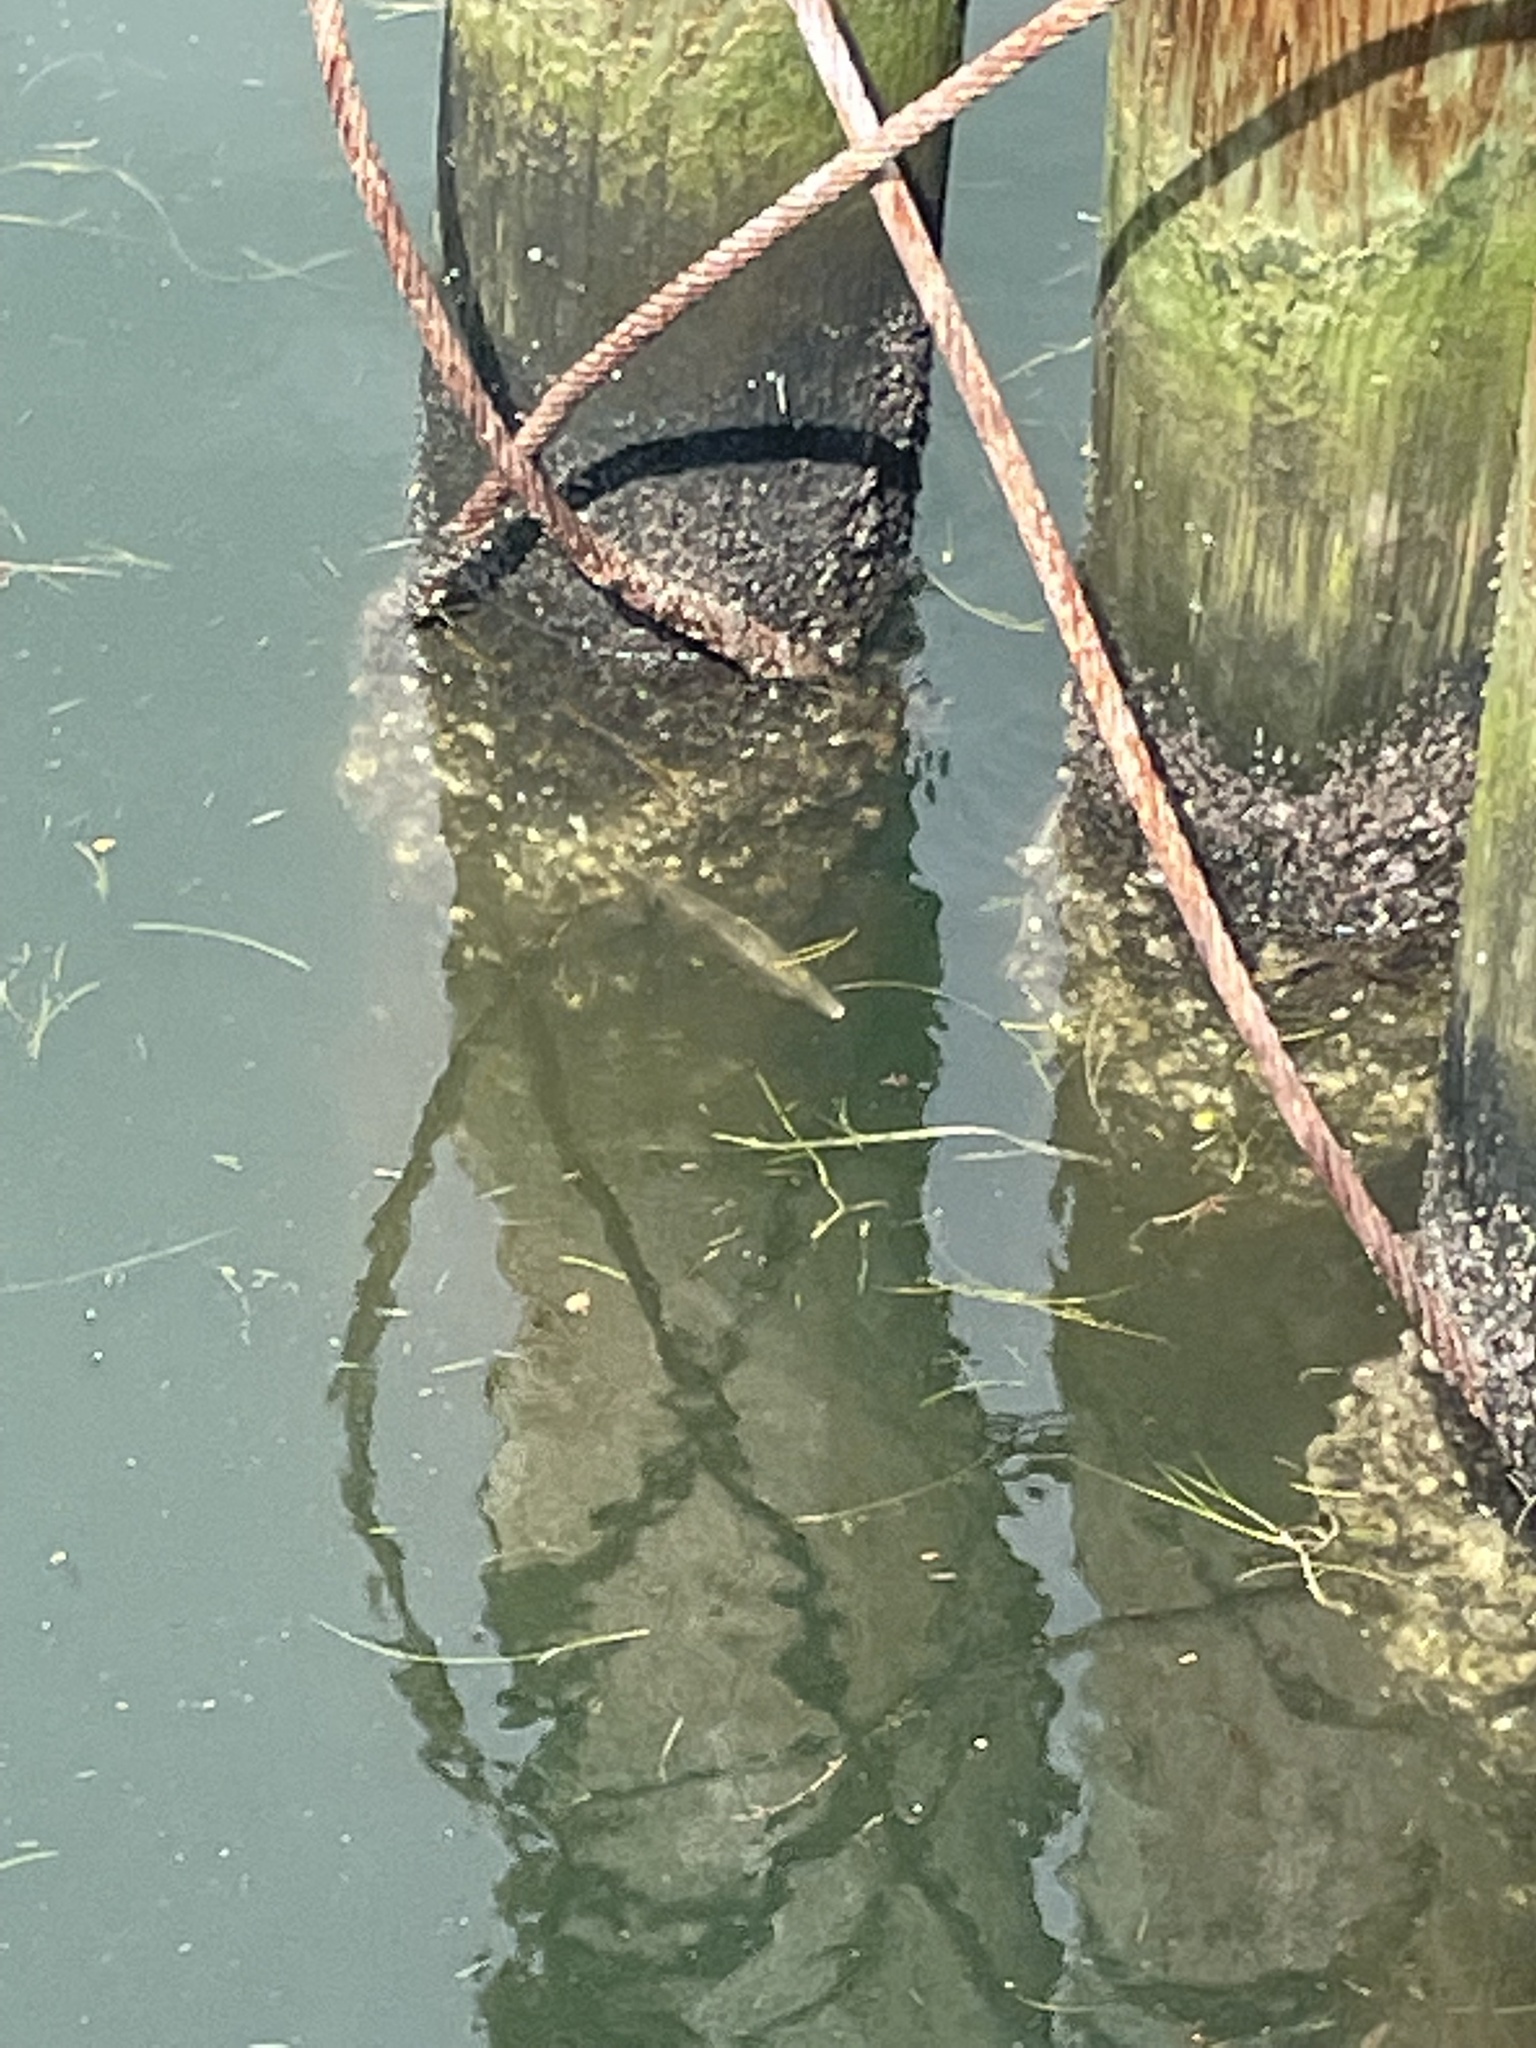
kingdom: Animalia
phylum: Chordata
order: Tetraodontiformes
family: Monacanthidae
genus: Stephanolepis
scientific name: Stephanolepis hispidus
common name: Planehead filefish
